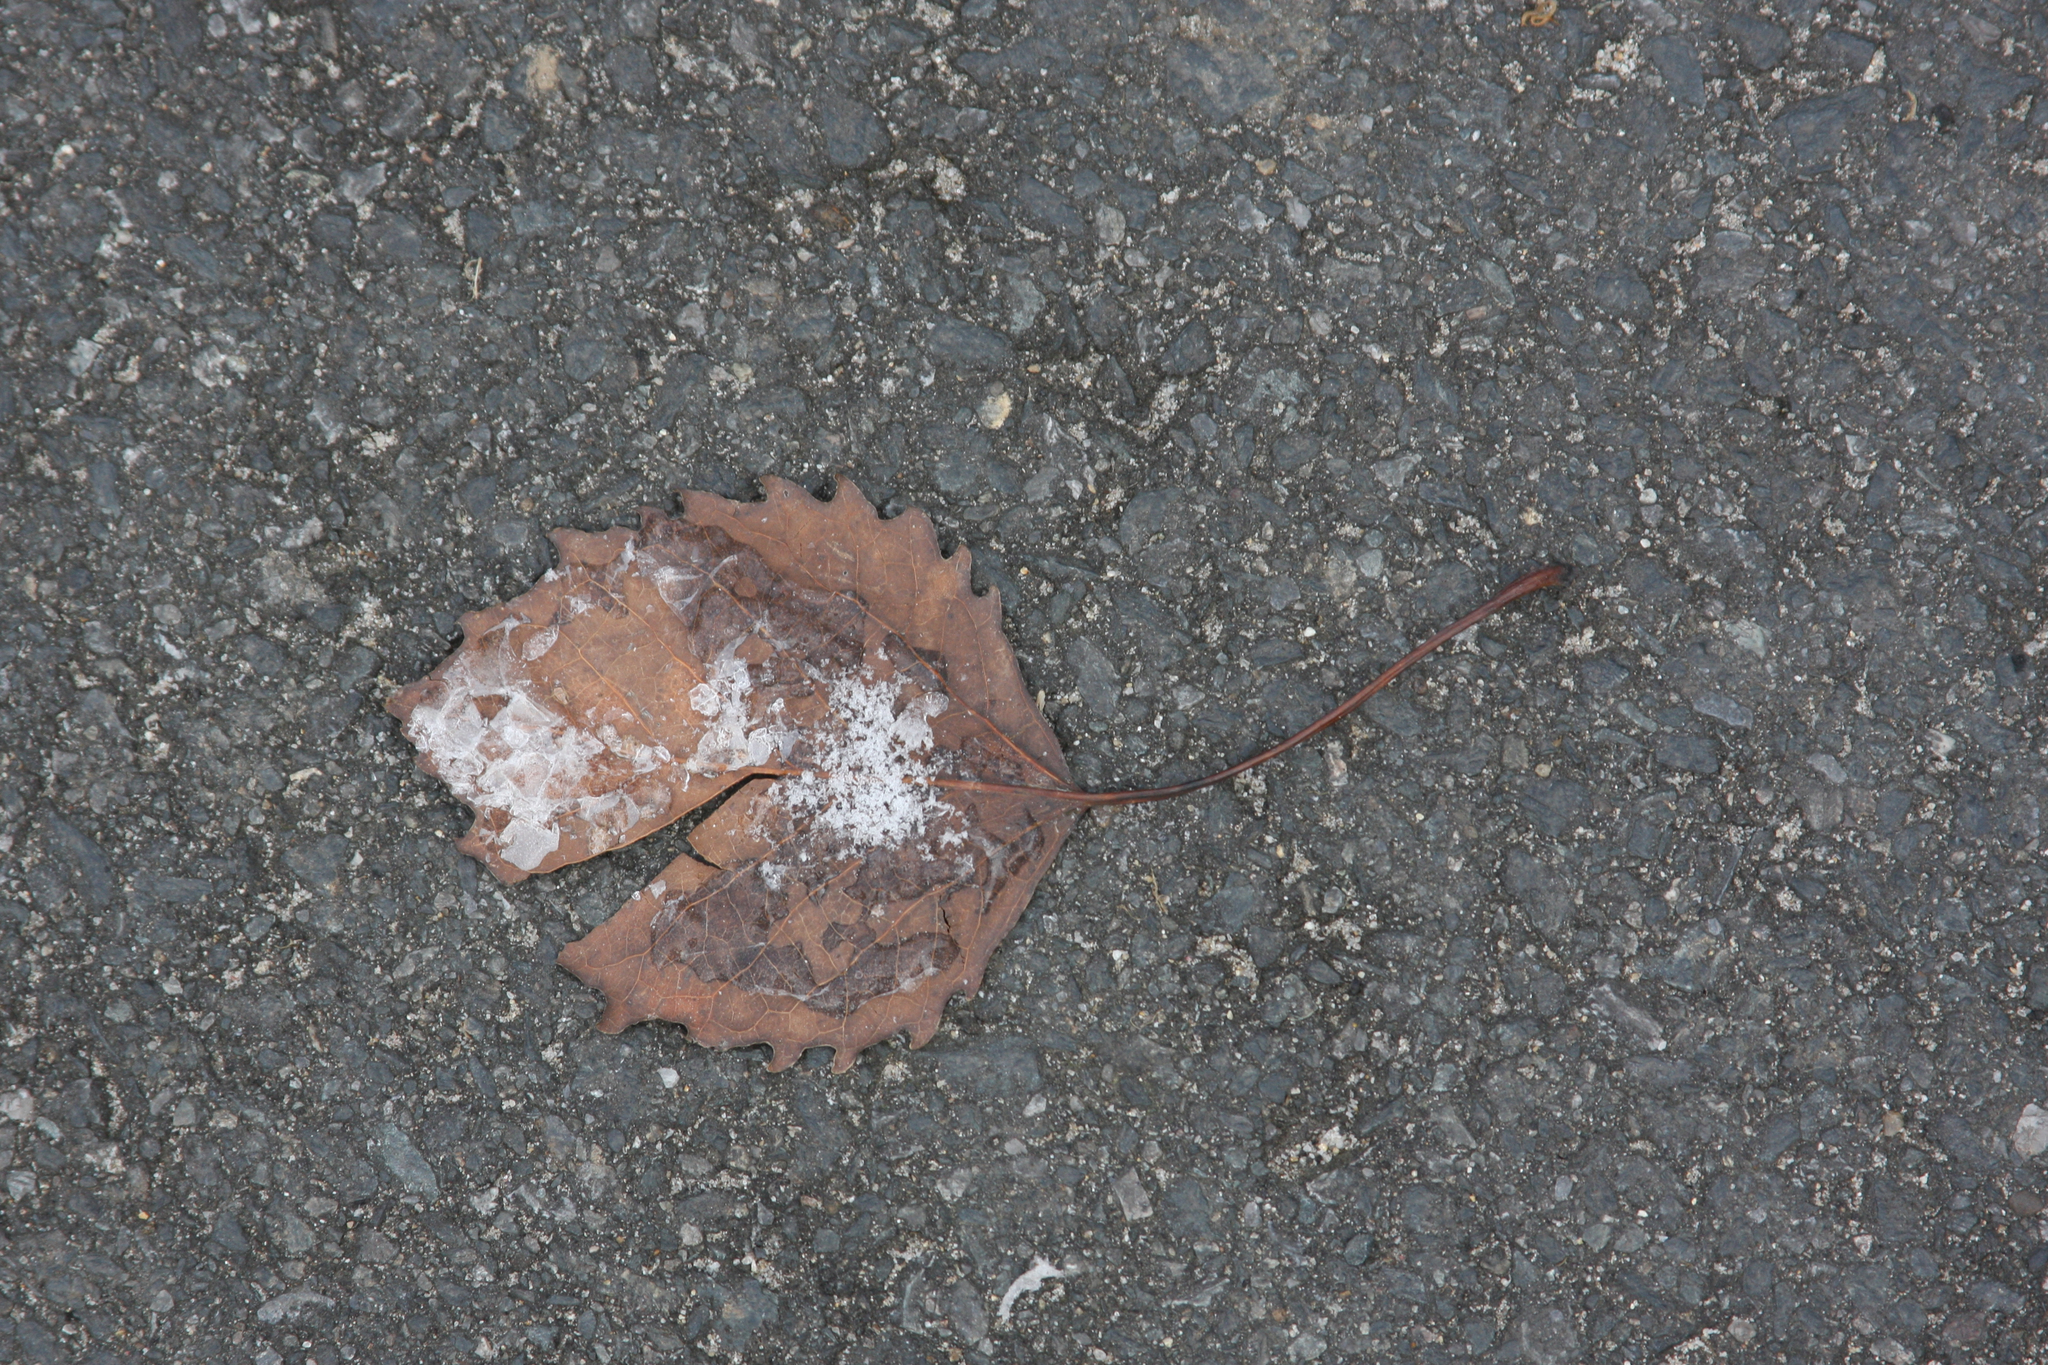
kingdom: Plantae
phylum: Tracheophyta
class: Magnoliopsida
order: Malpighiales
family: Salicaceae
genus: Populus
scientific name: Populus grandidentata
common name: Bigtooth aspen
